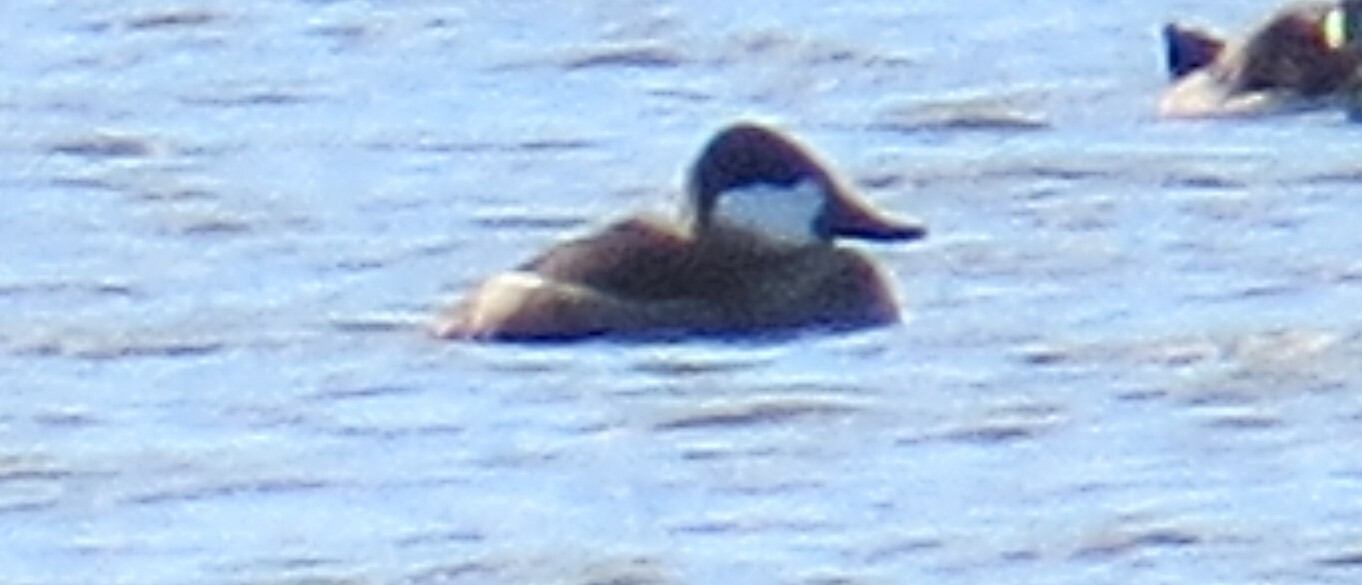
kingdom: Animalia
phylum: Chordata
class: Aves
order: Anseriformes
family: Anatidae
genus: Oxyura
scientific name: Oxyura jamaicensis
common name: Ruddy duck
